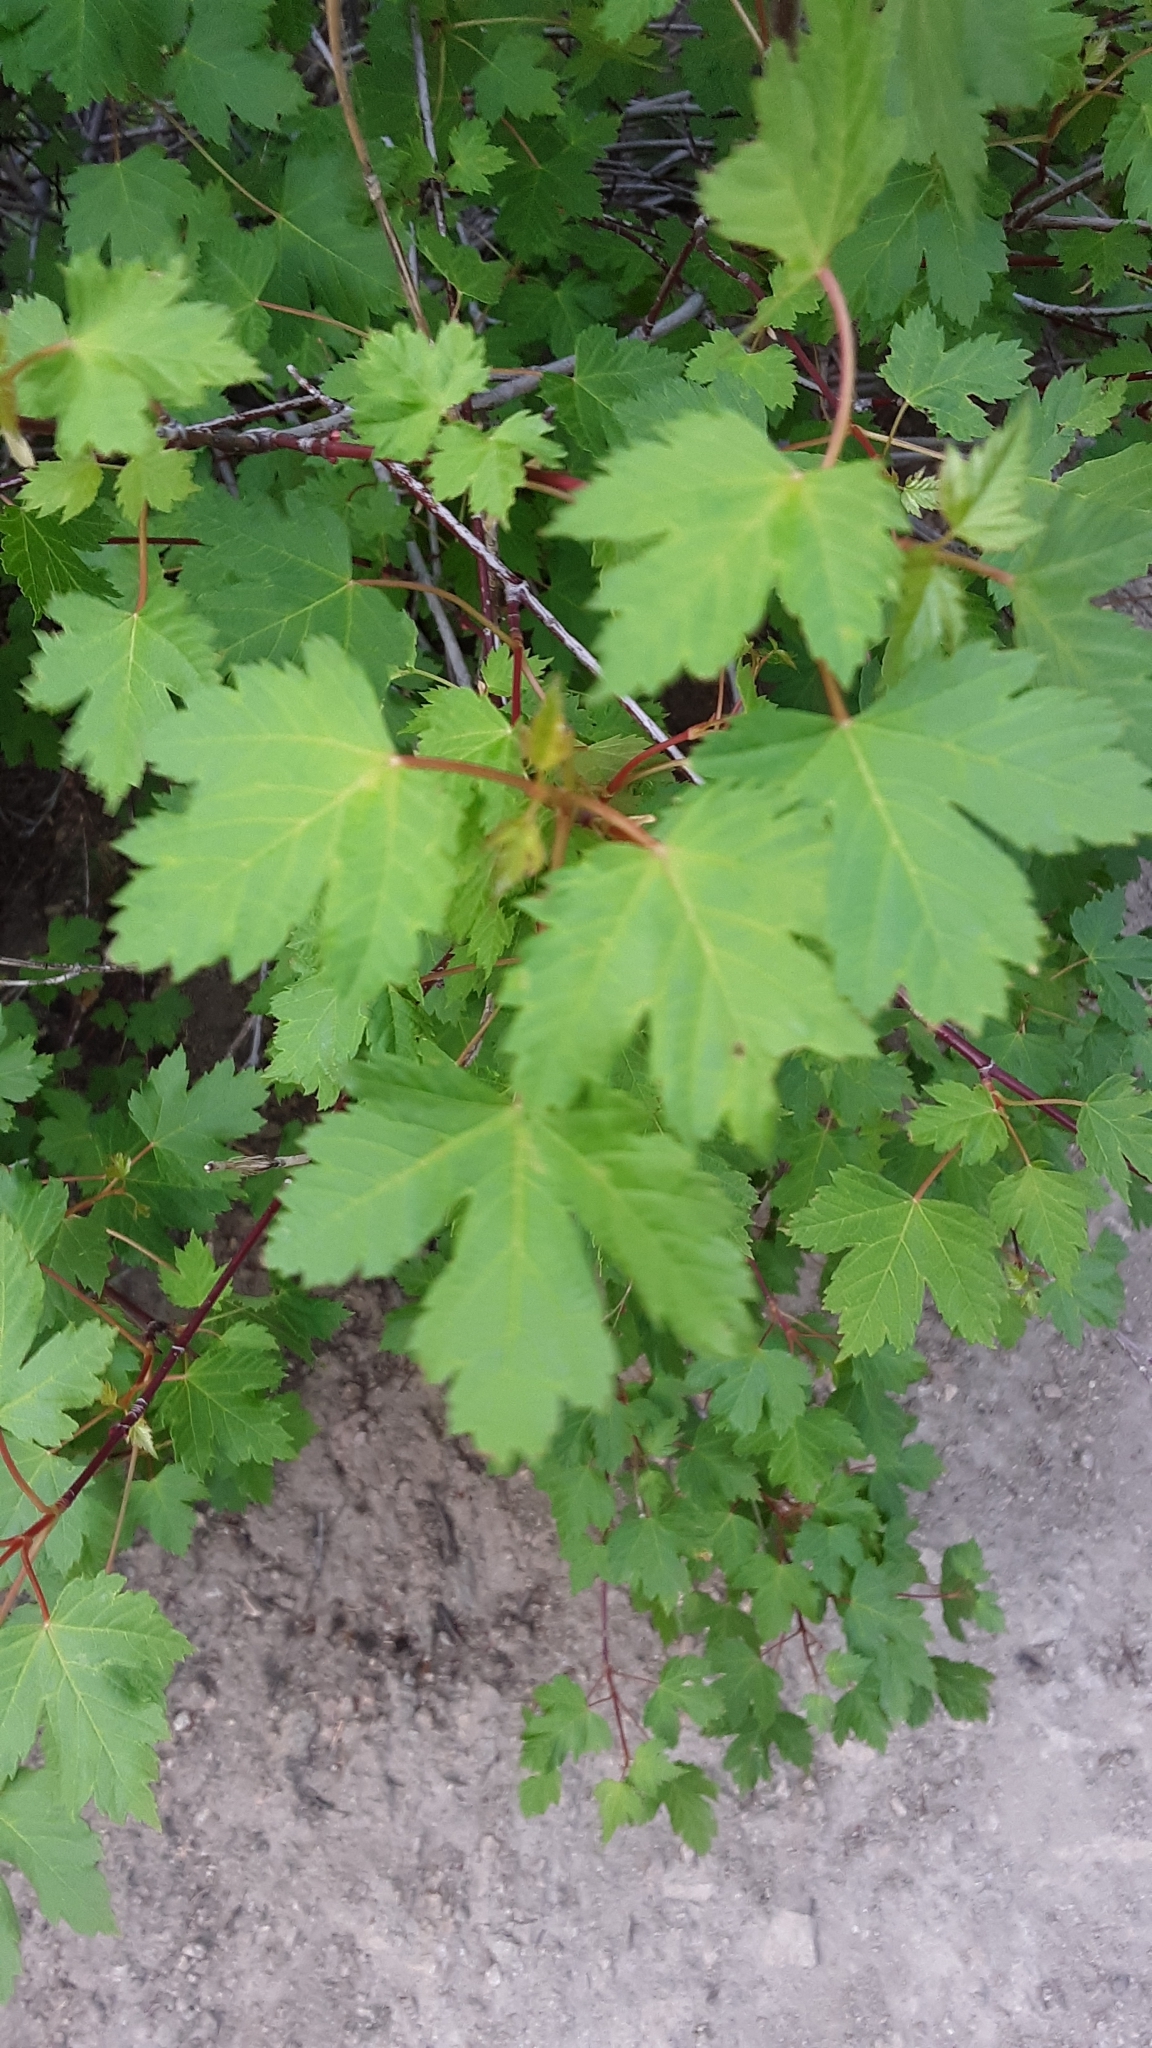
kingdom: Plantae
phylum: Tracheophyta
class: Magnoliopsida
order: Sapindales
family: Sapindaceae
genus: Acer
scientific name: Acer glabrum
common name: Rocky mountain maple
